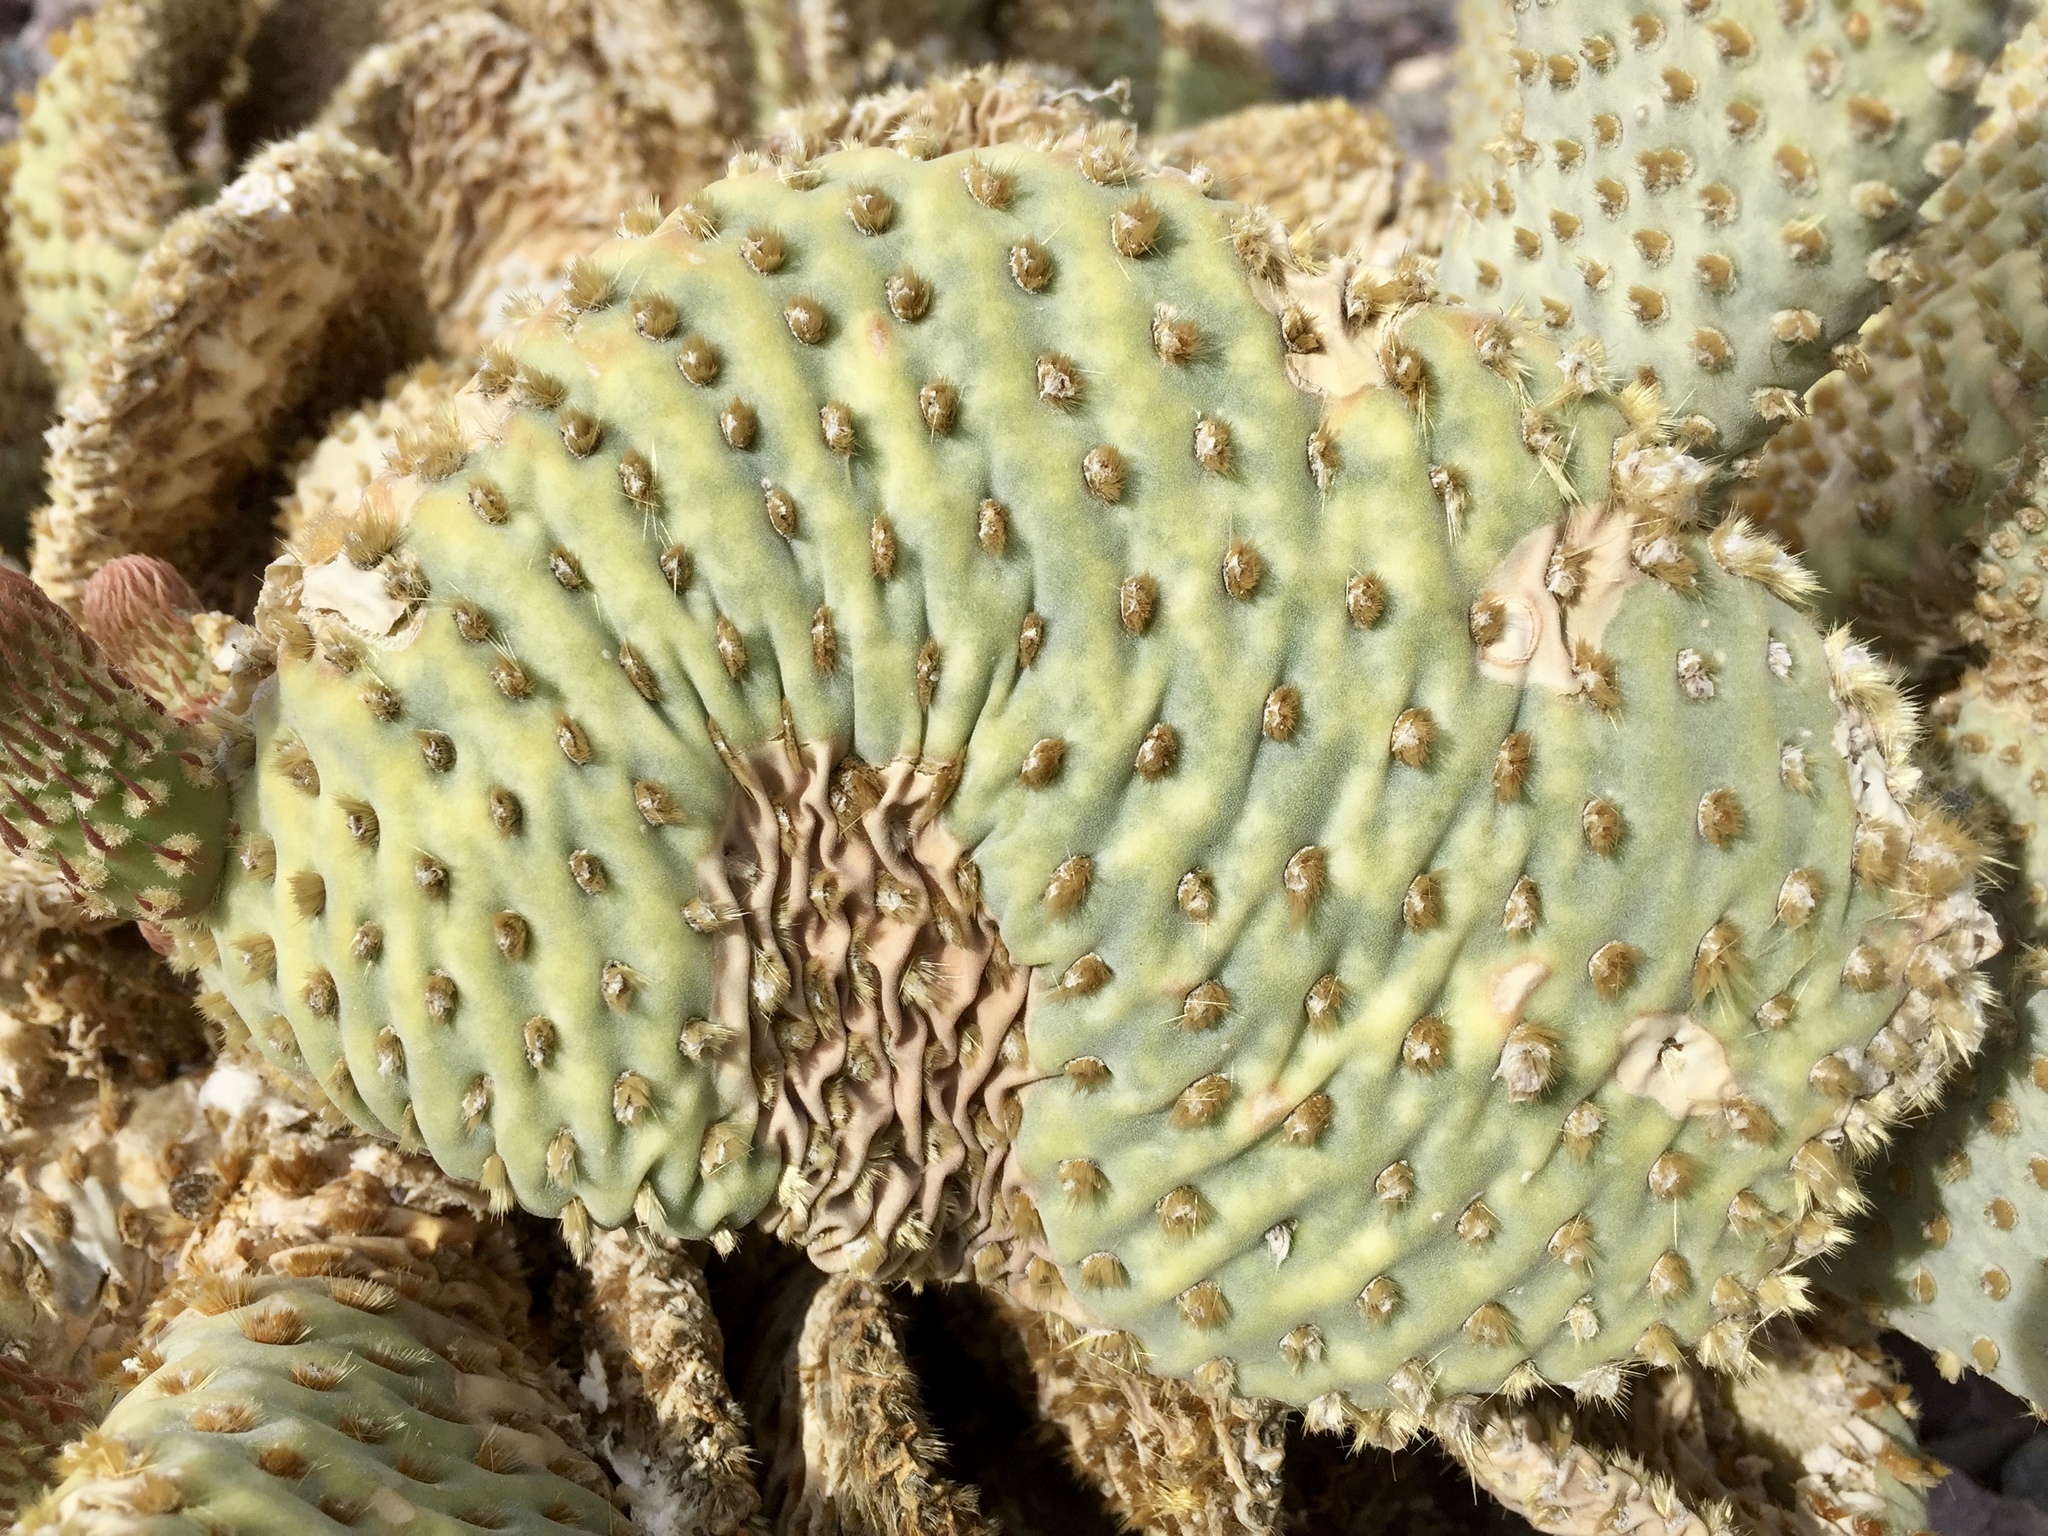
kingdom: Plantae
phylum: Tracheophyta
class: Magnoliopsida
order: Caryophyllales
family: Cactaceae
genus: Opuntia
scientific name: Opuntia basilaris
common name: Beavertail prickly-pear
